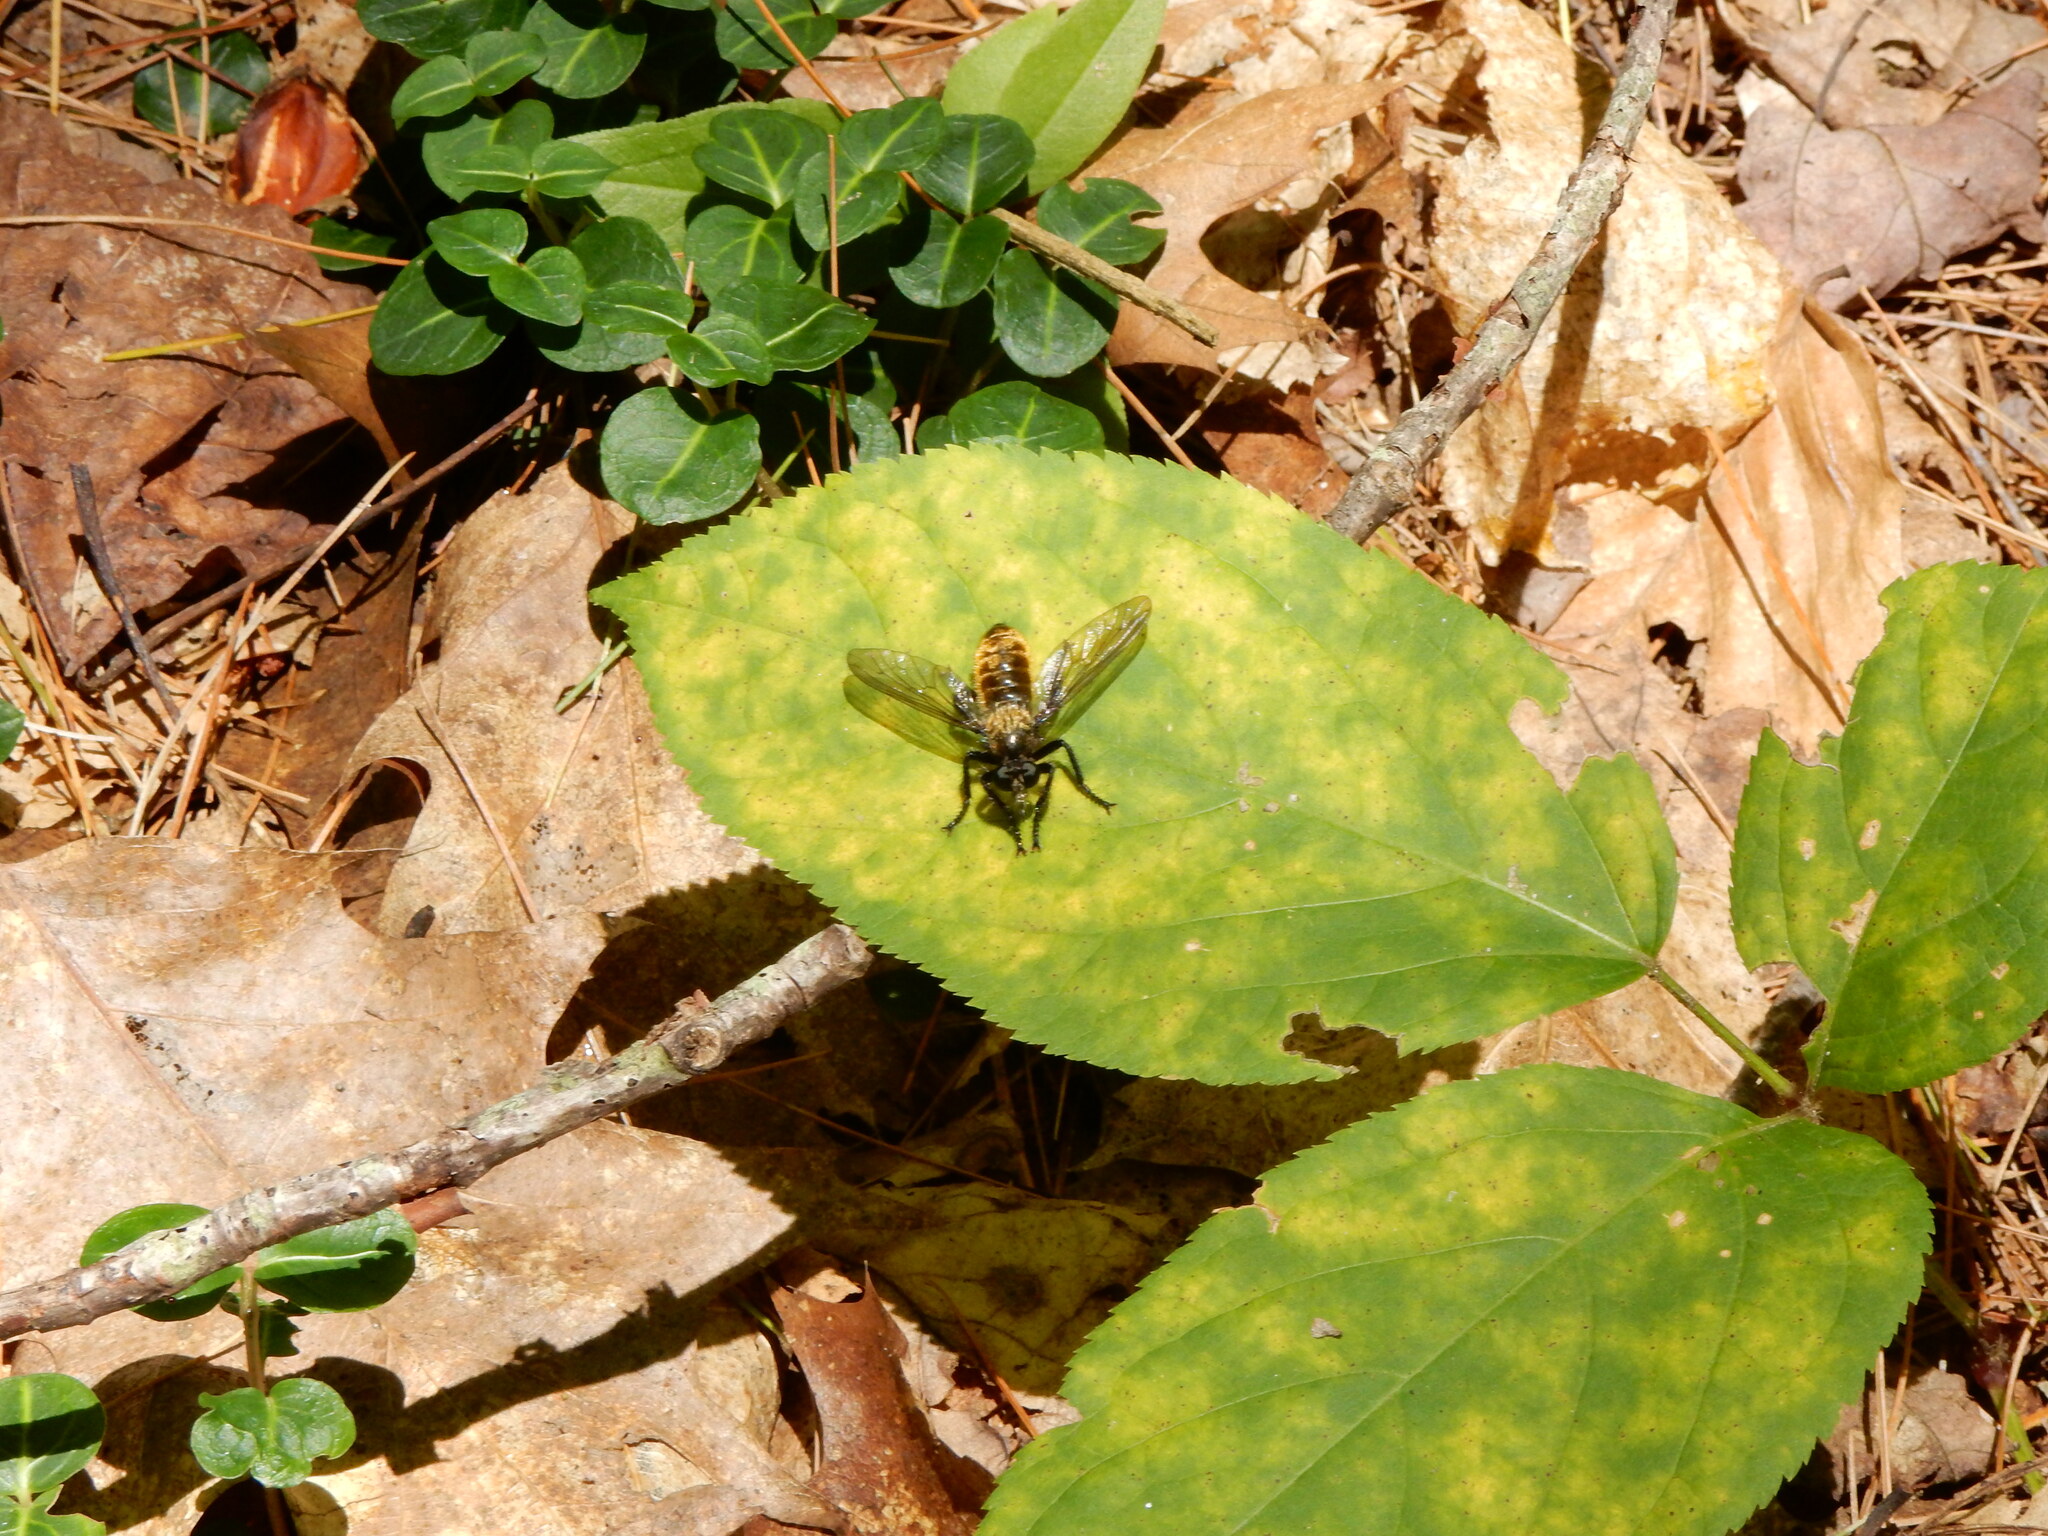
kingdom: Animalia
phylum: Arthropoda
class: Insecta
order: Diptera
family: Asilidae
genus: Laphria
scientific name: Laphria
